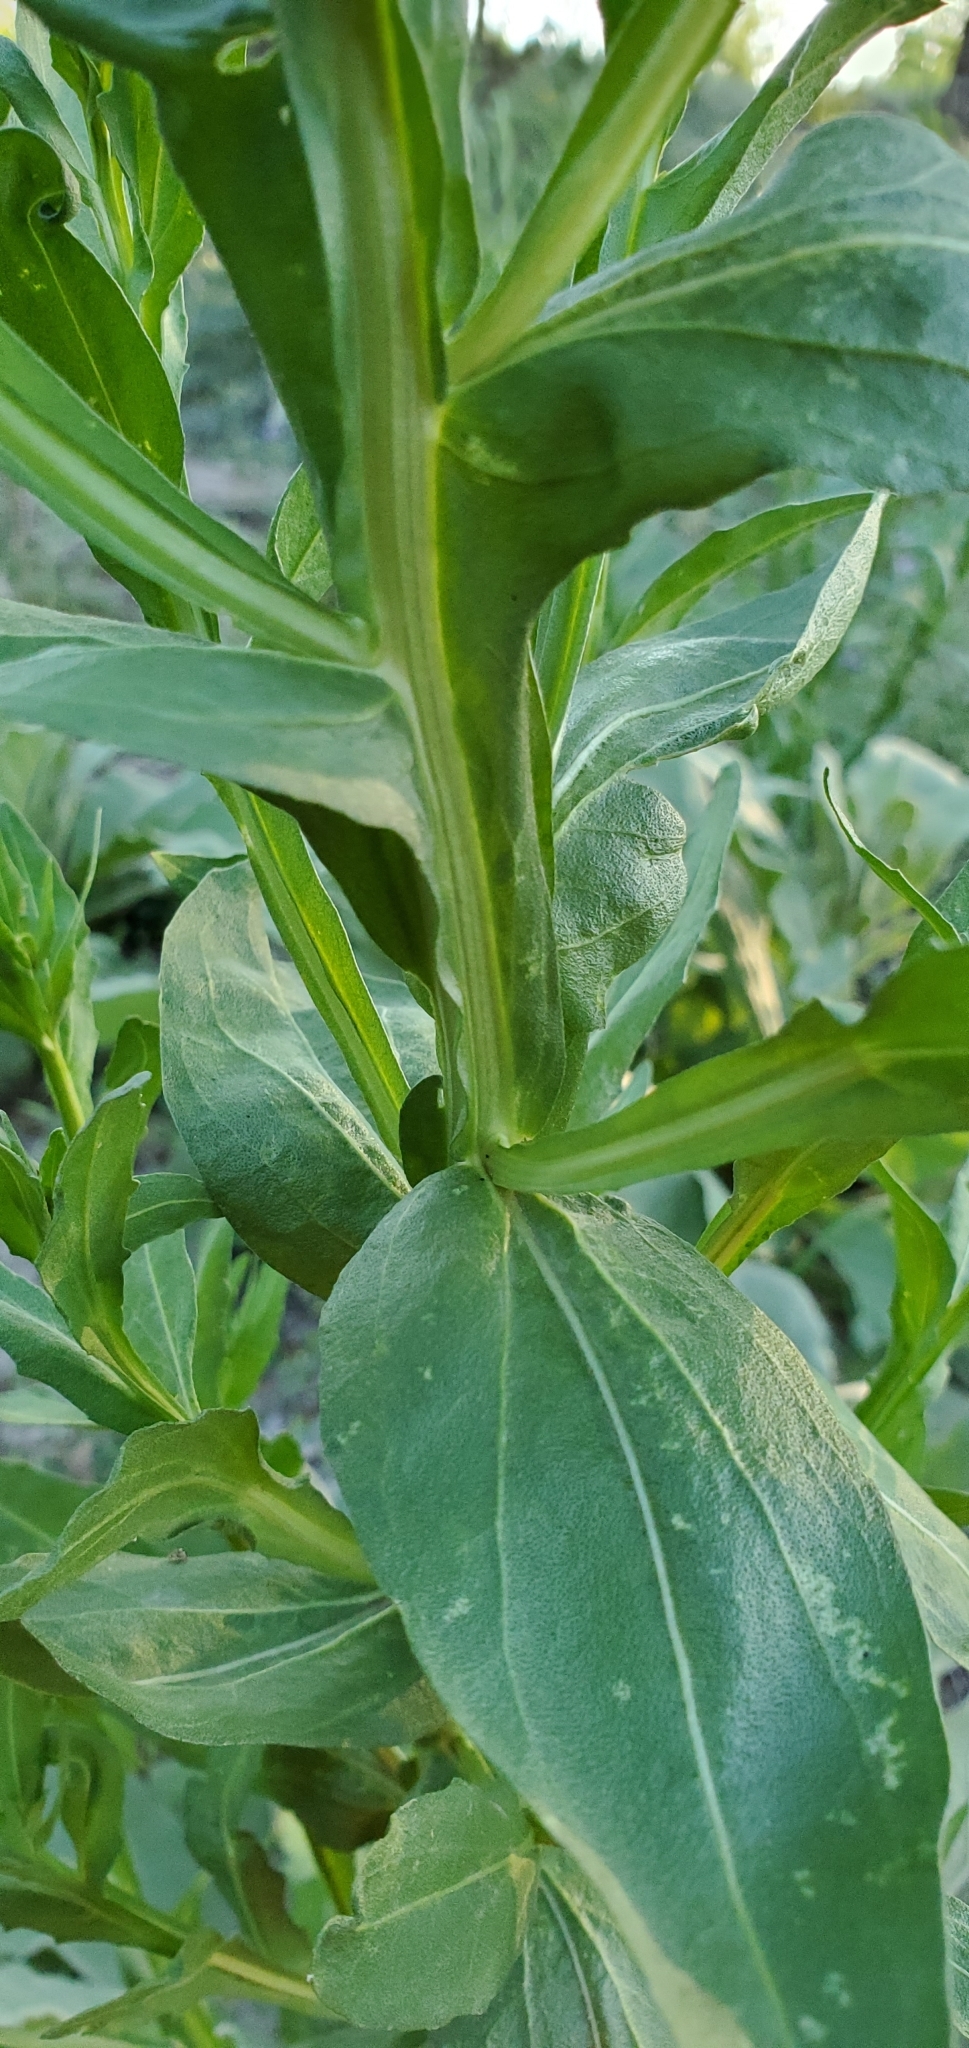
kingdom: Plantae
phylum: Tracheophyta
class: Magnoliopsida
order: Asterales
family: Asteraceae
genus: Helenium
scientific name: Helenium microcephalum
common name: Smallhead sneezeweed
